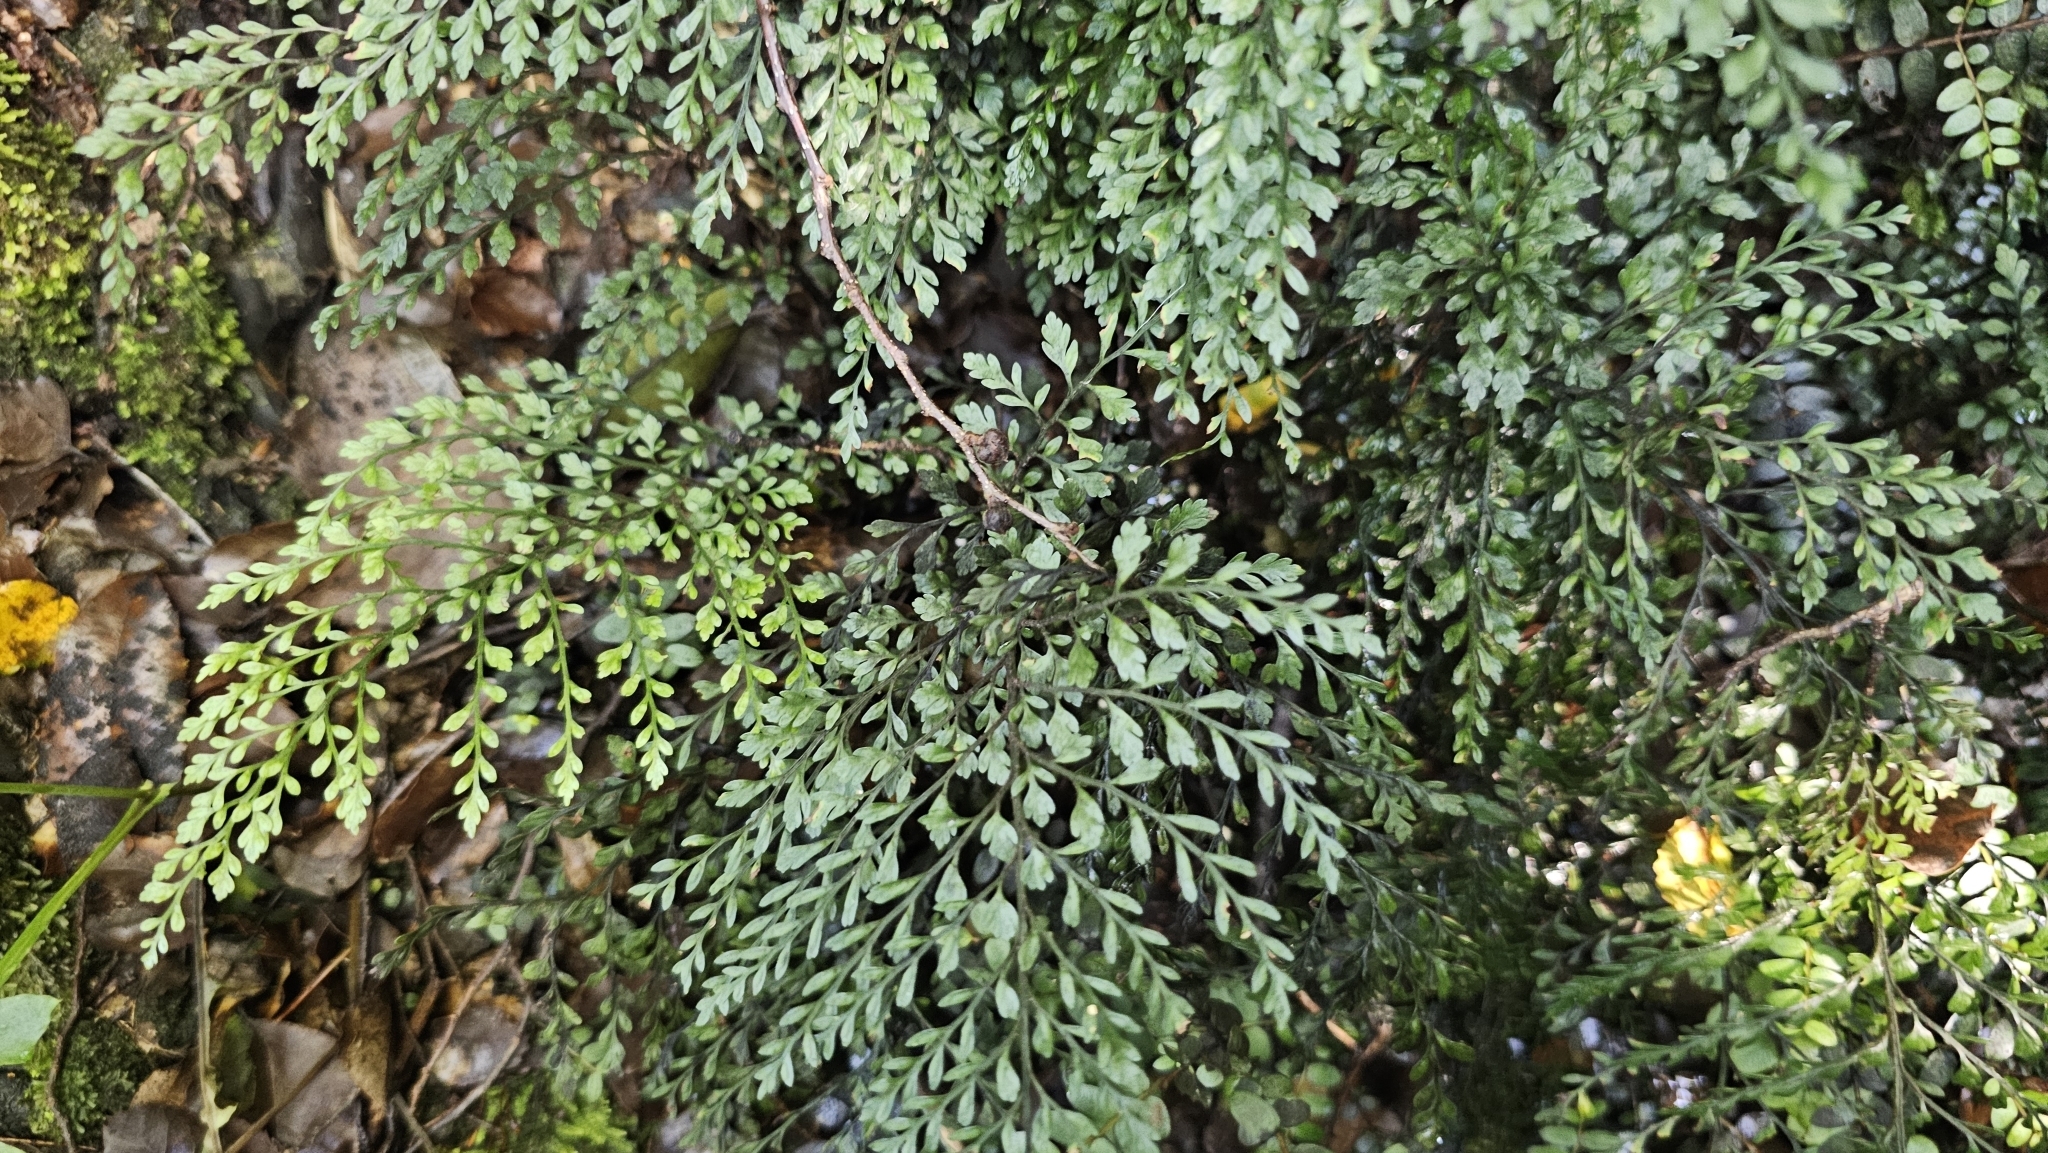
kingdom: Plantae
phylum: Tracheophyta
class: Polypodiopsida
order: Polypodiales
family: Aspleniaceae
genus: Asplenium
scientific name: Asplenium hookerianum
